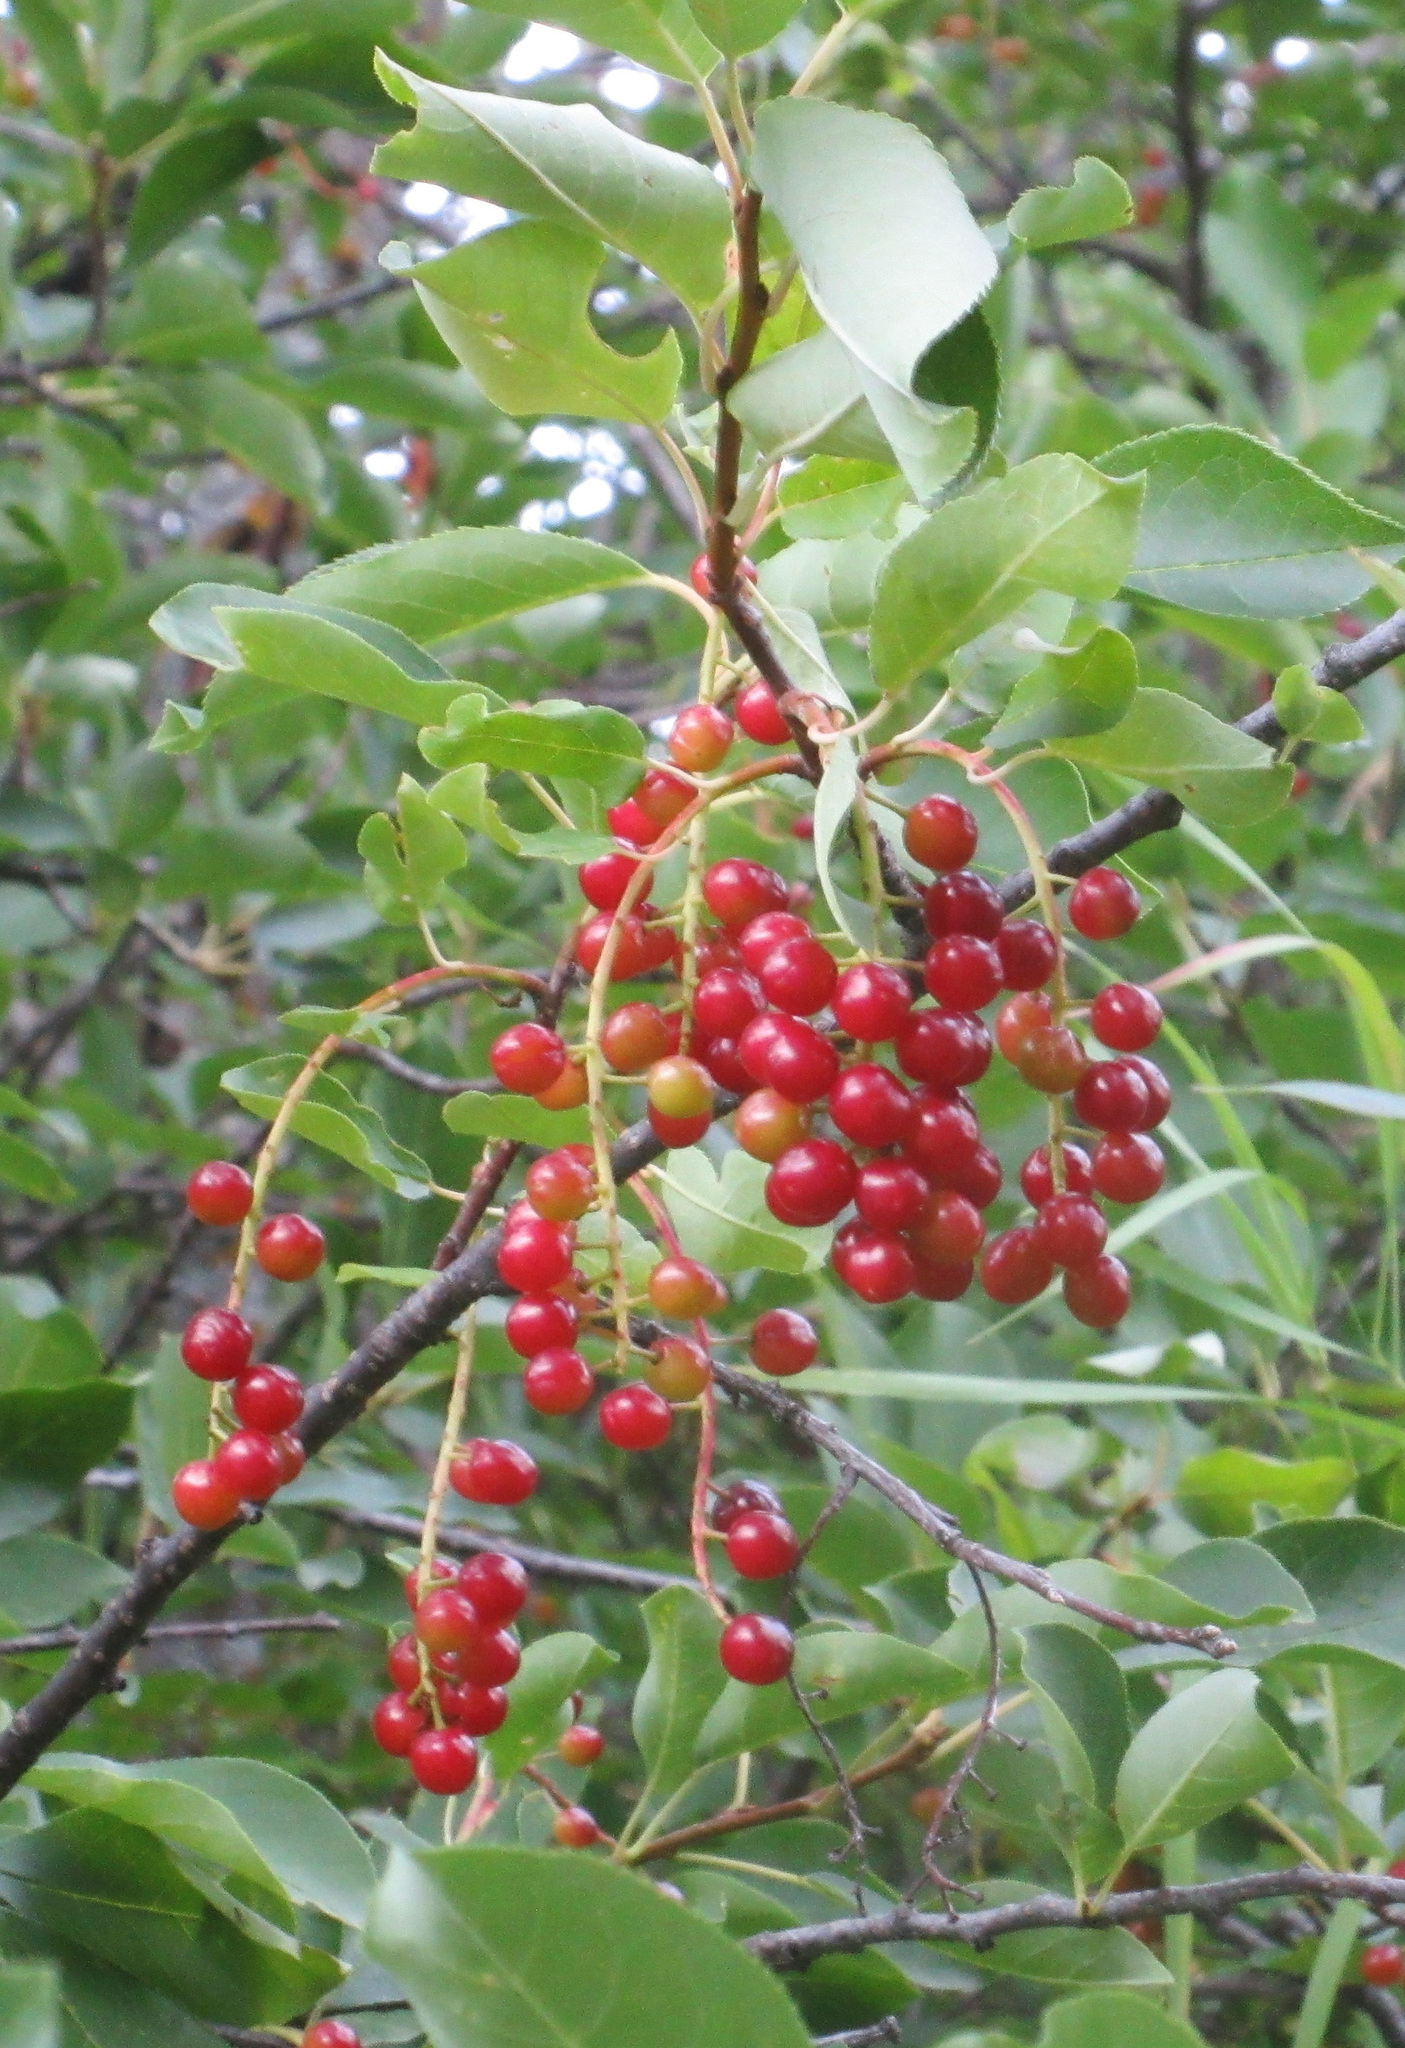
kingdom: Plantae
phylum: Tracheophyta
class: Magnoliopsida
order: Rosales
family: Rosaceae
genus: Prunus
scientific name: Prunus virginiana
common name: Chokecherry
